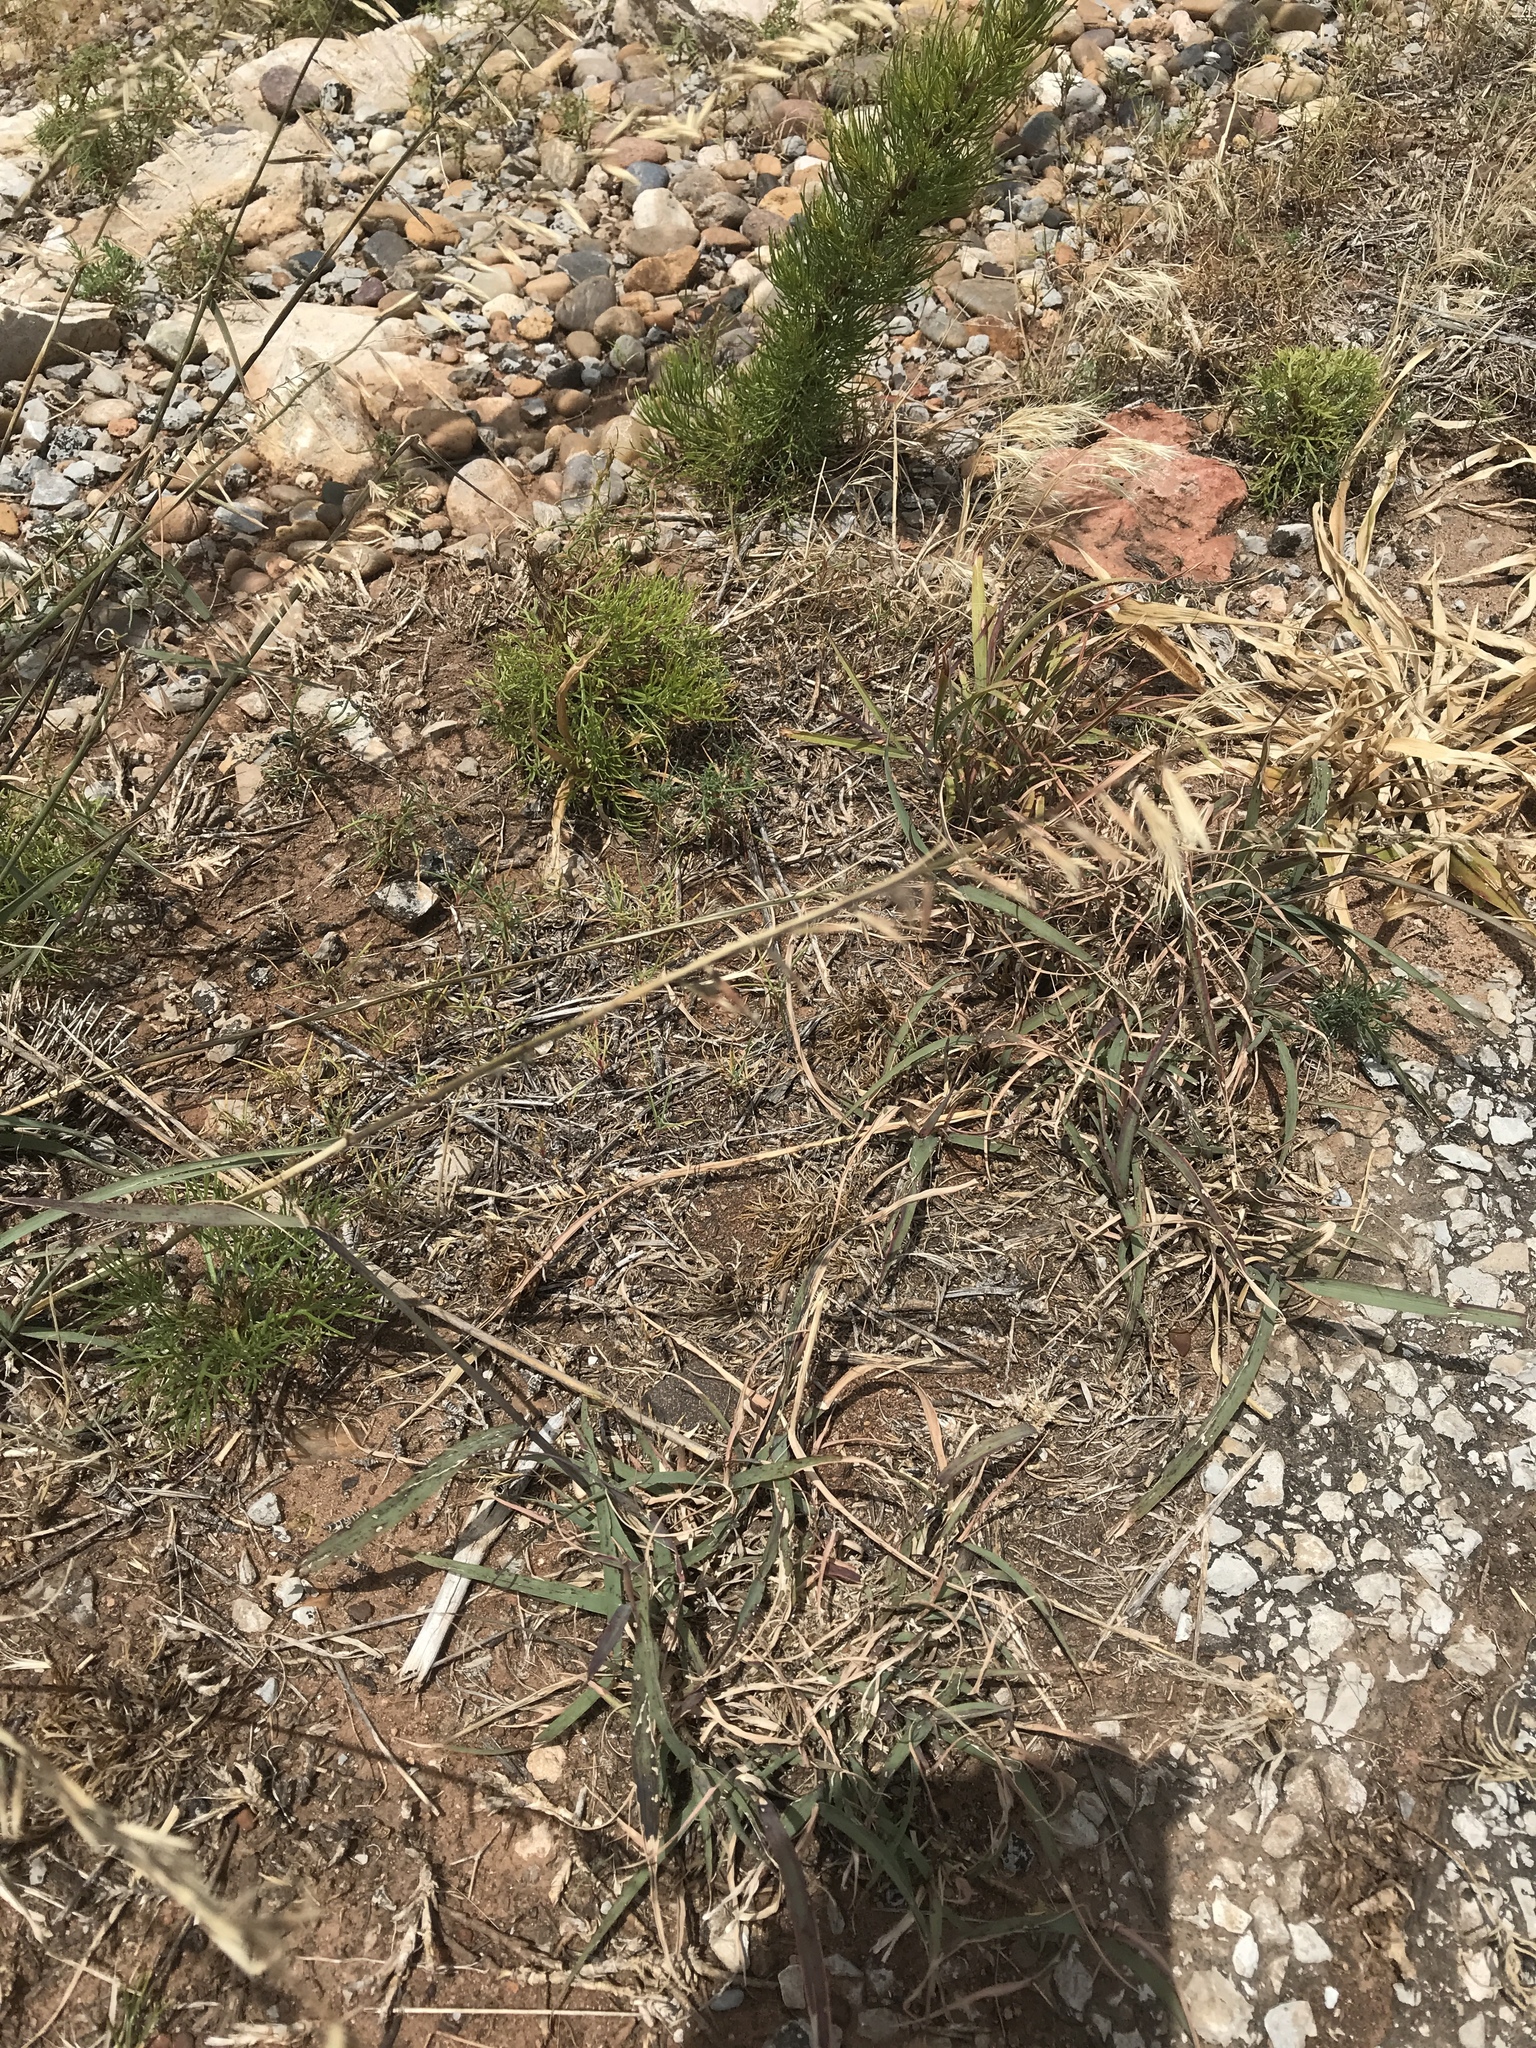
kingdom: Plantae
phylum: Tracheophyta
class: Liliopsida
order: Poales
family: Poaceae
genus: Bouteloua
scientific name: Bouteloua curtipendula
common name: Side-oats grama
